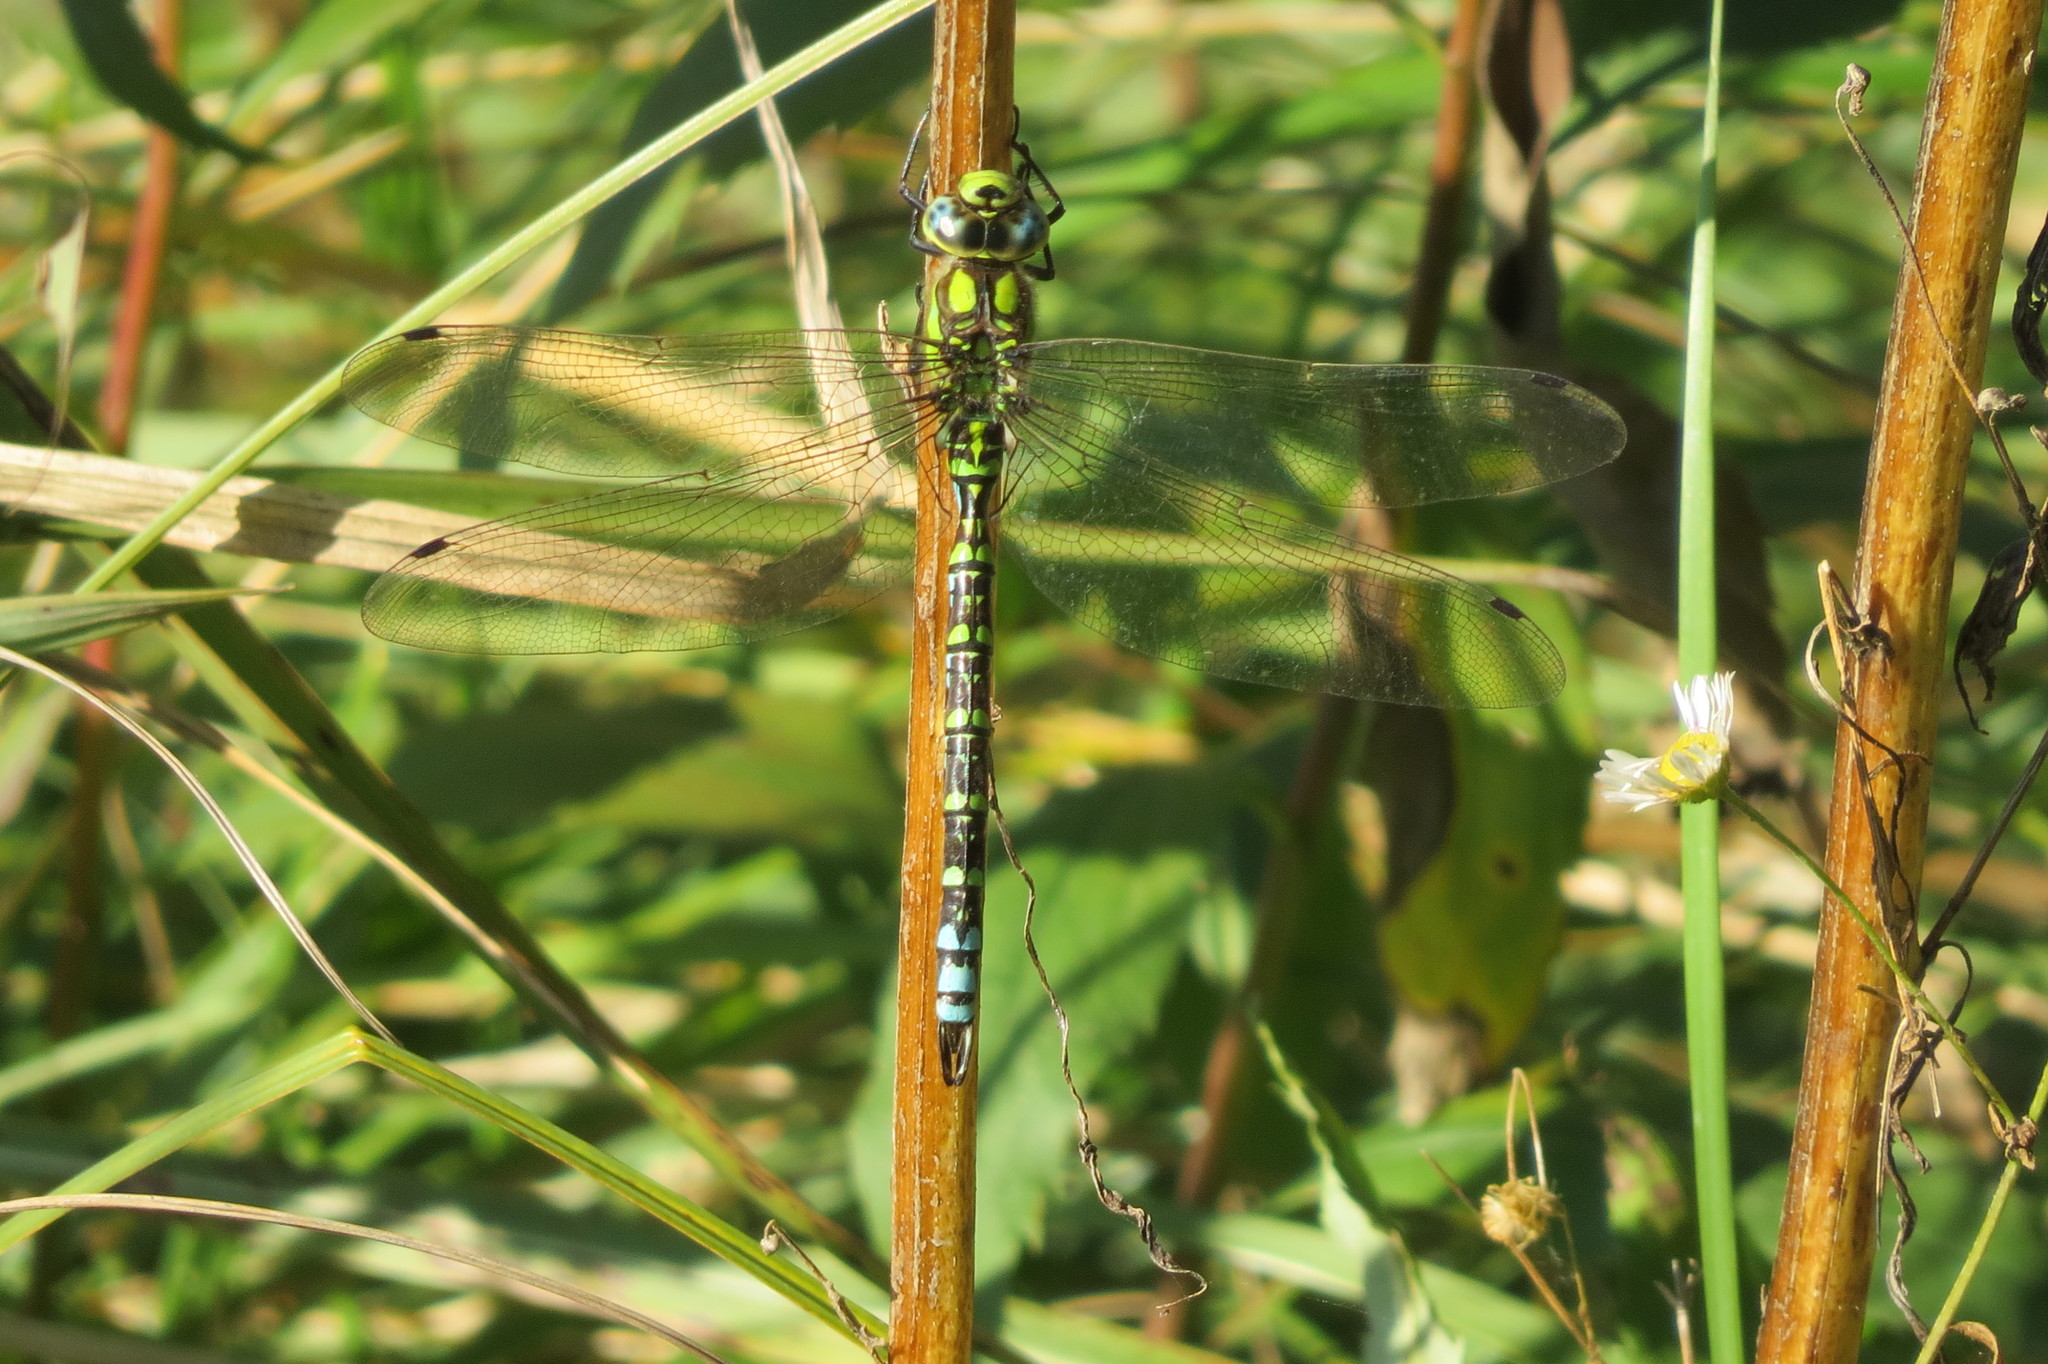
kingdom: Animalia
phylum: Arthropoda
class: Insecta
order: Odonata
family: Aeshnidae
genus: Aeshna
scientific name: Aeshna cyanea
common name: Southern hawker
